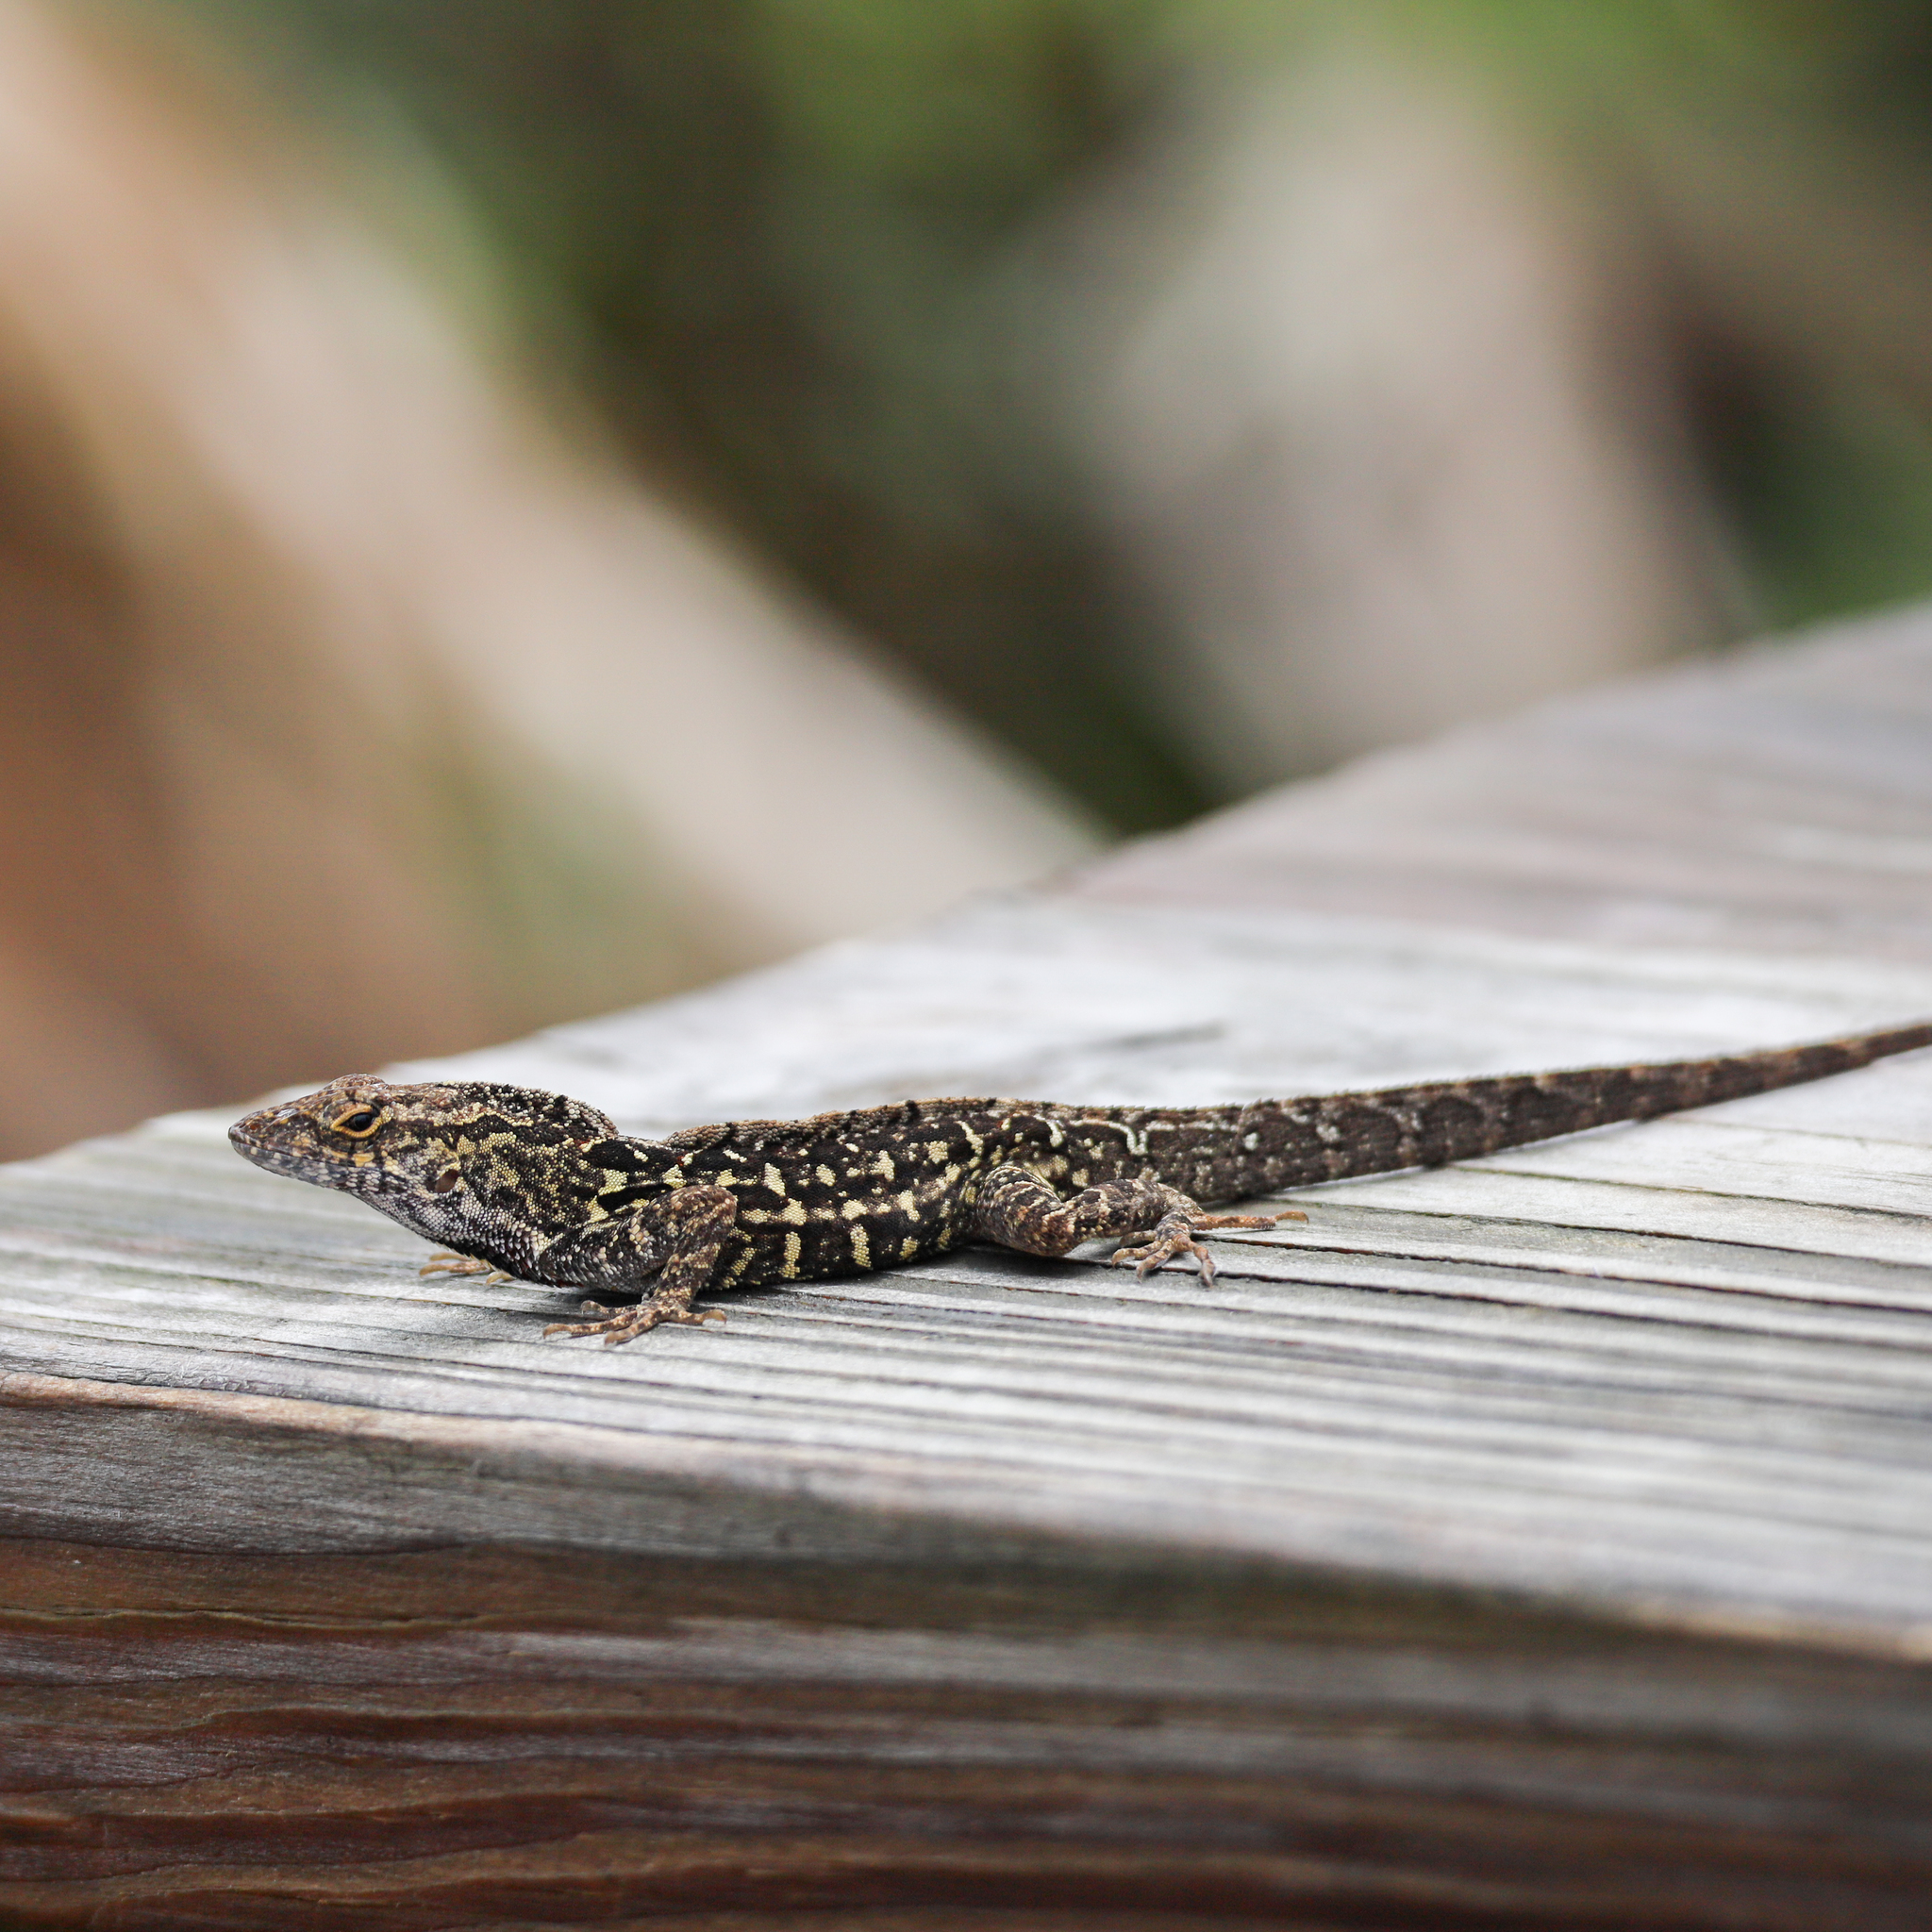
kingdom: Animalia
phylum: Chordata
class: Squamata
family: Dactyloidae
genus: Anolis
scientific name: Anolis sagrei
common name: Brown anole
